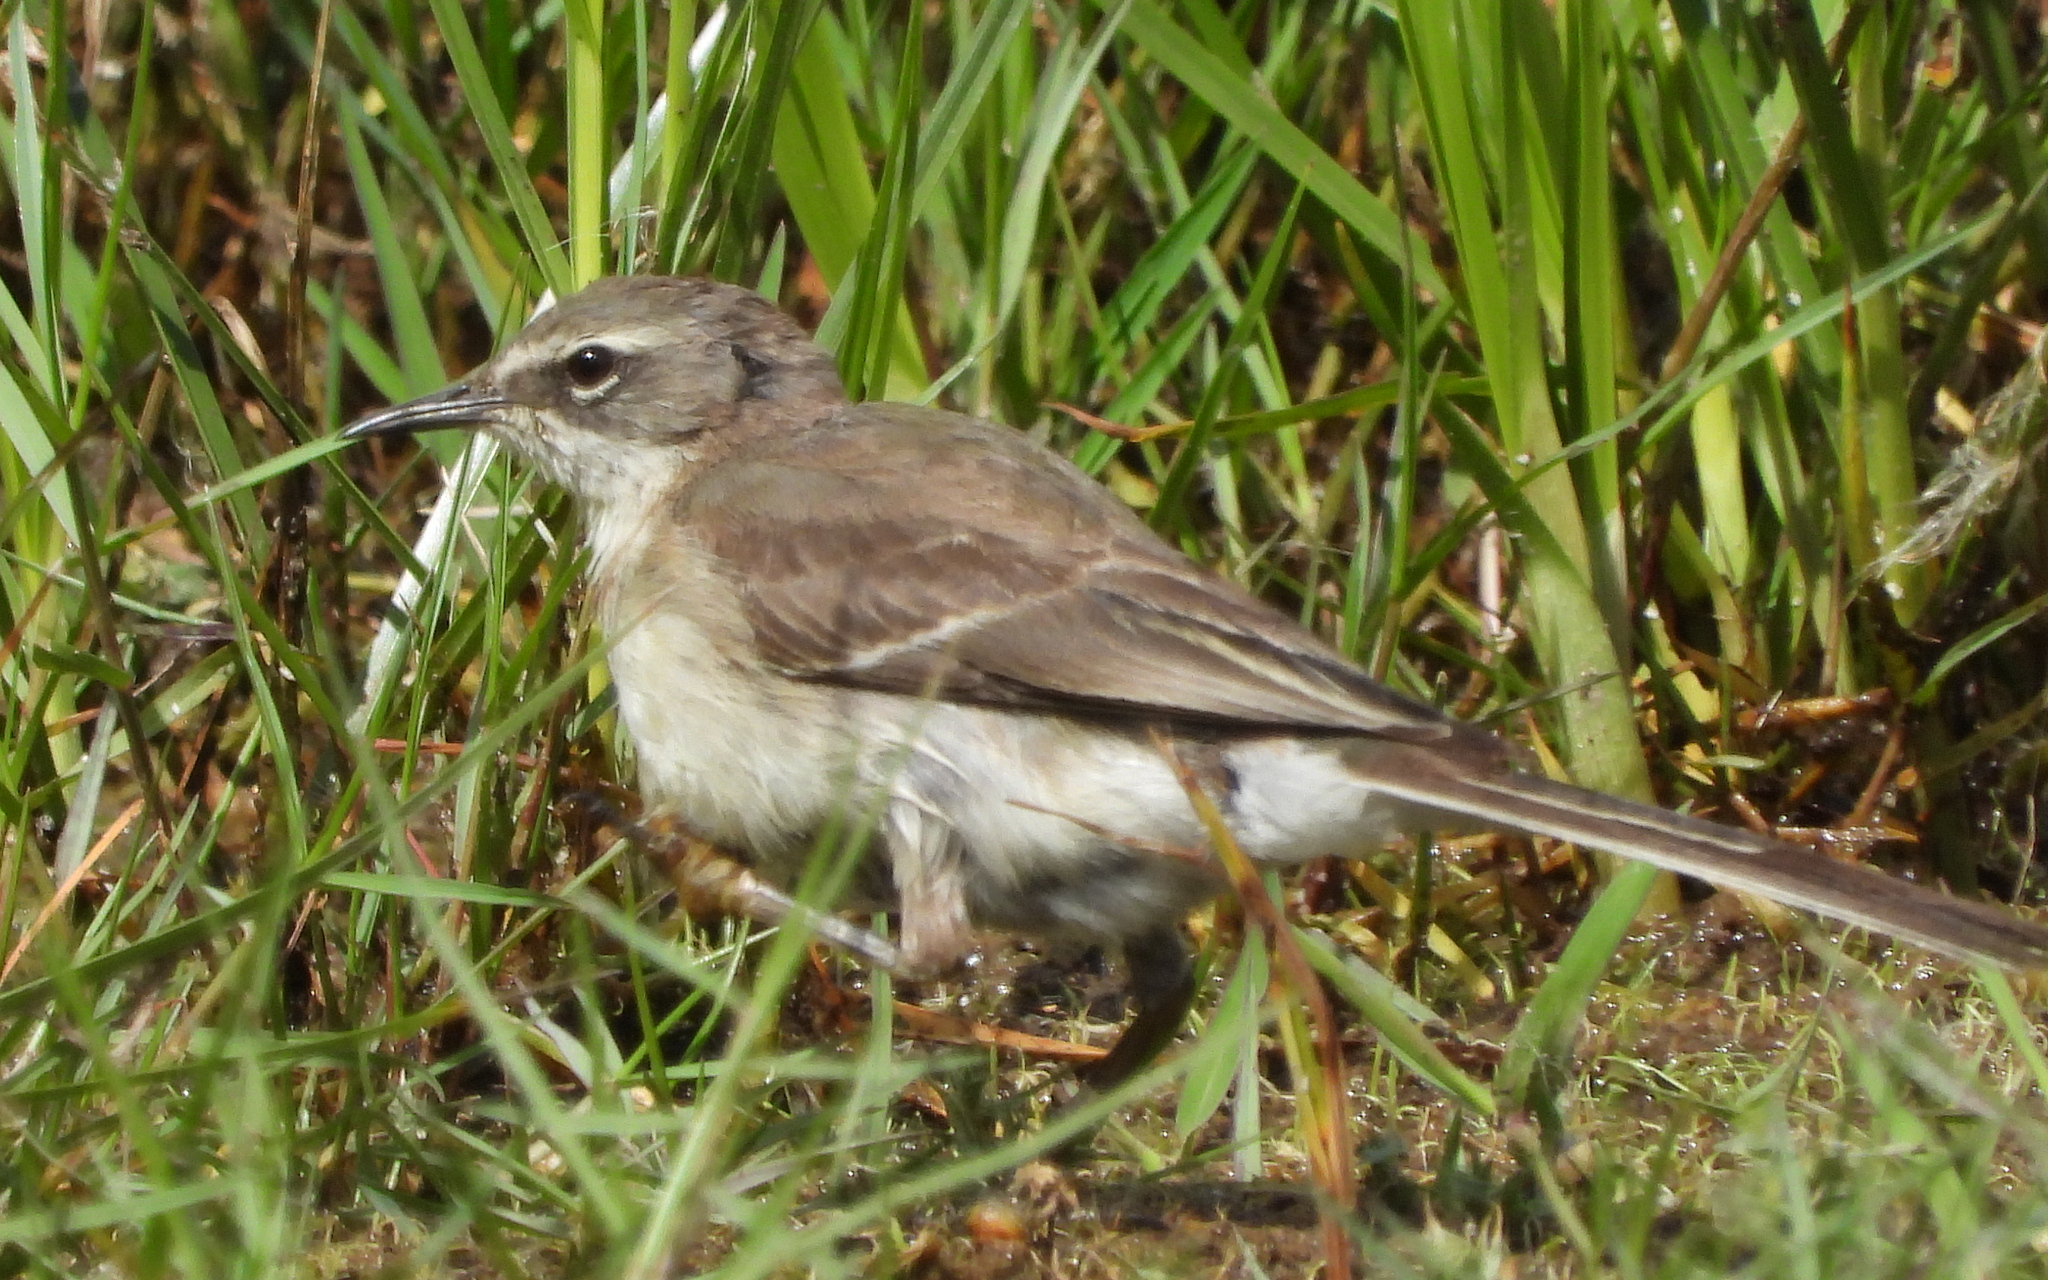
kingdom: Animalia
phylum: Chordata
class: Aves
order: Passeriformes
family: Motacillidae
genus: Motacilla
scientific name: Motacilla capensis
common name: Cape wagtail
